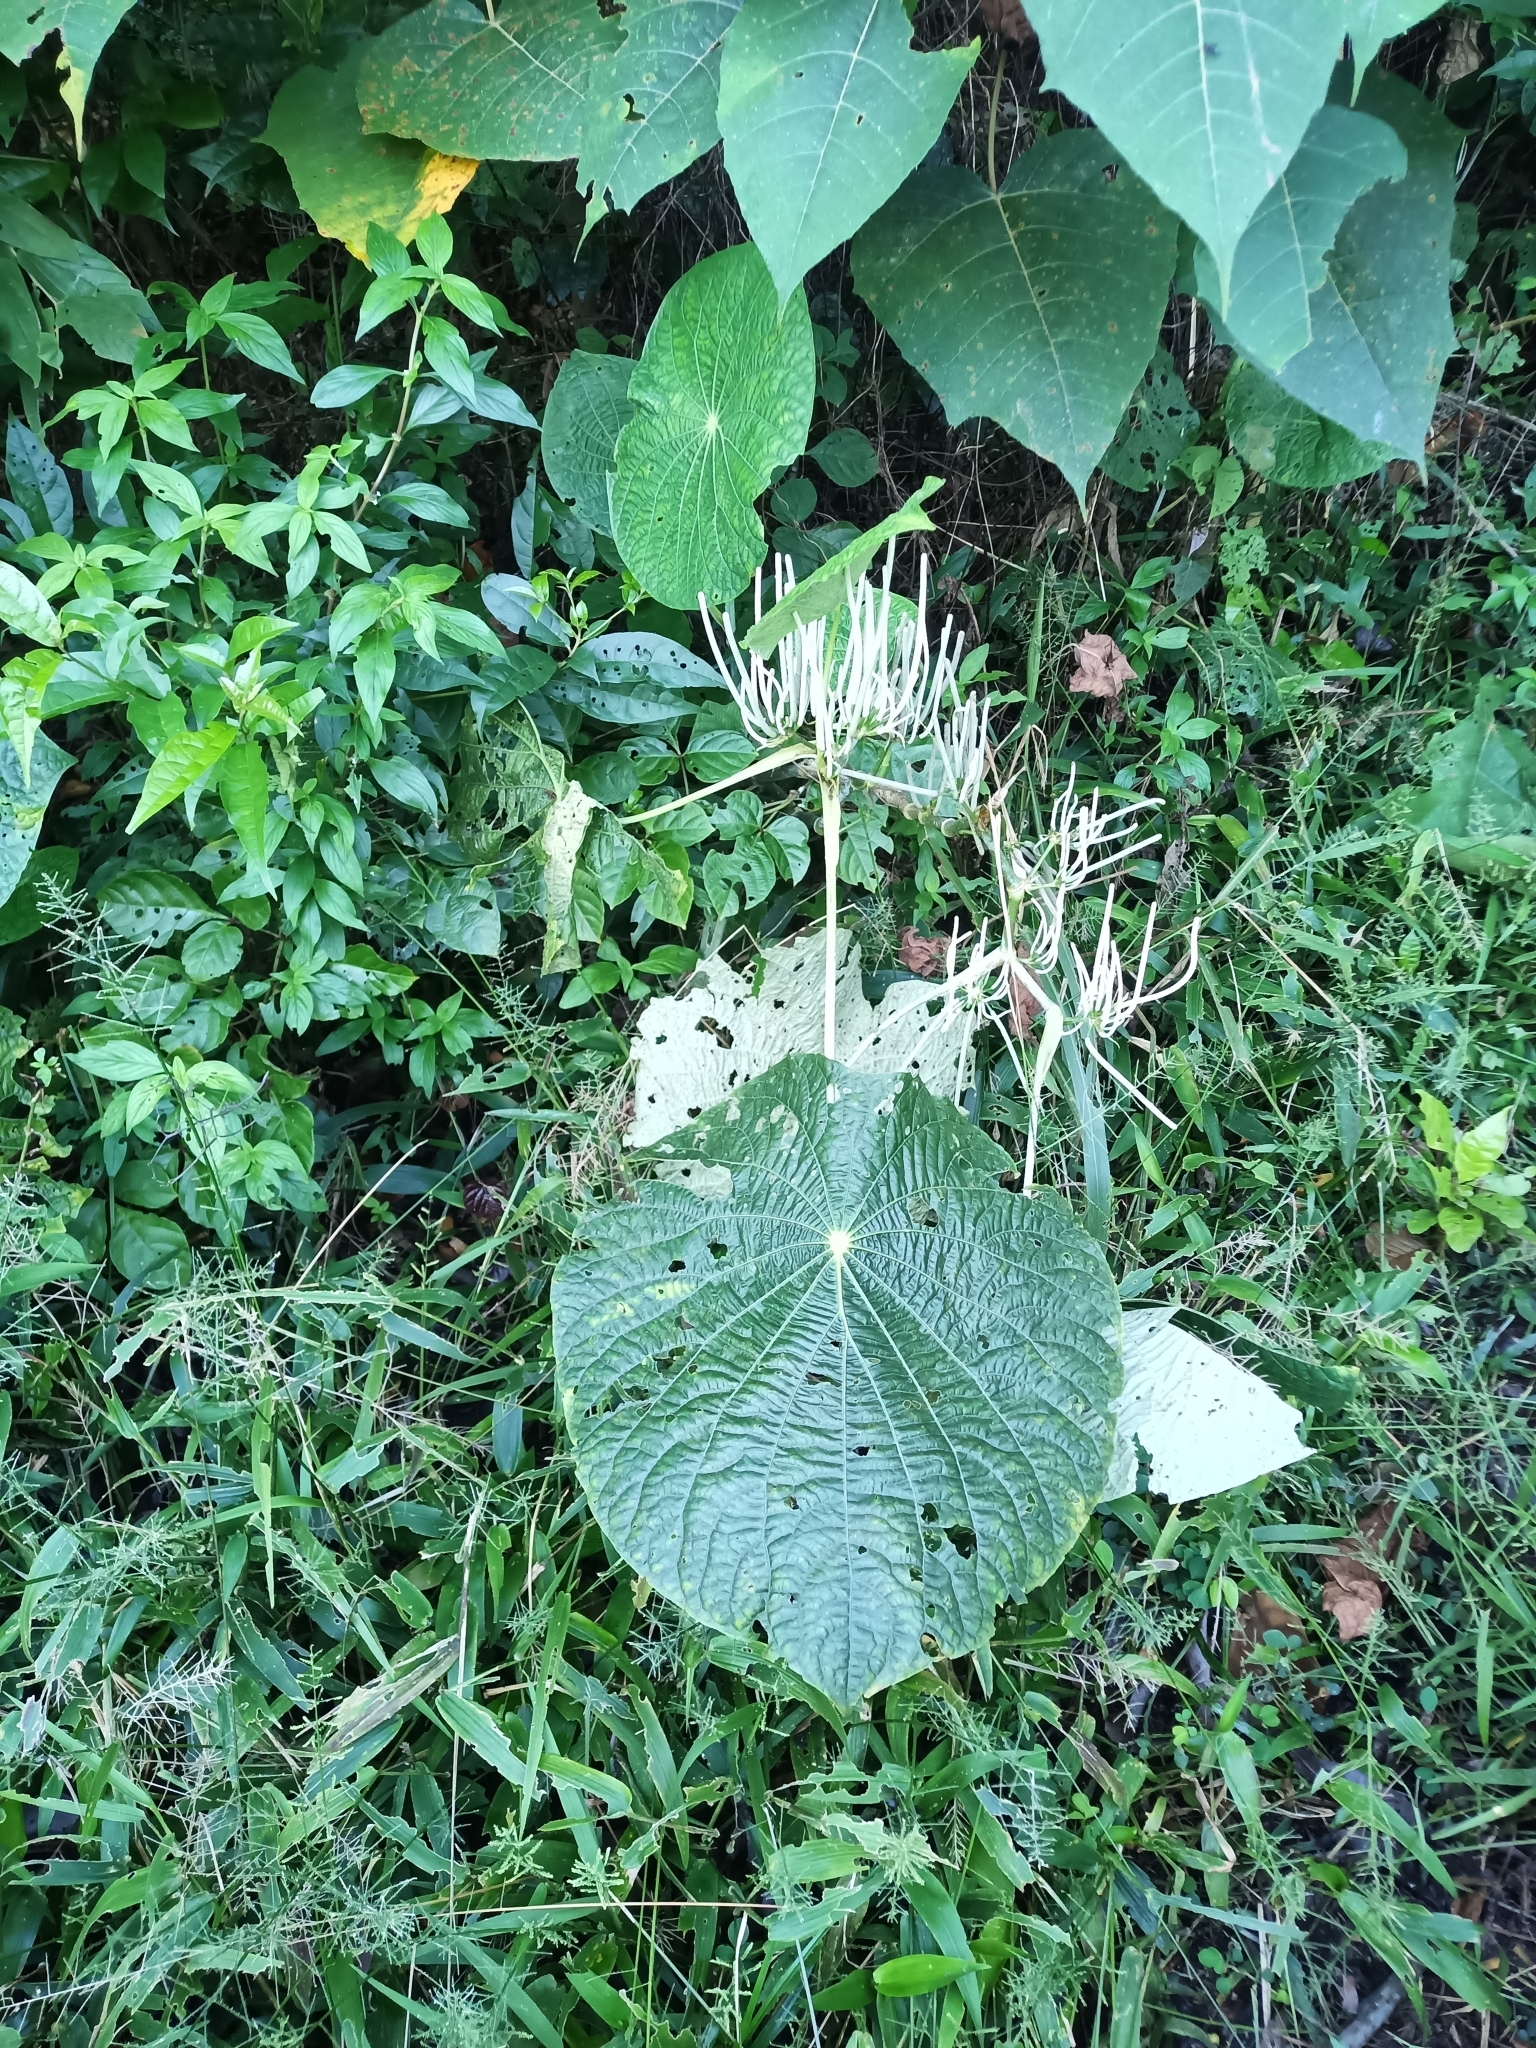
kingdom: Plantae
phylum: Tracheophyta
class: Magnoliopsida
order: Piperales
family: Piperaceae
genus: Piper
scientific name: Piper peltatum
